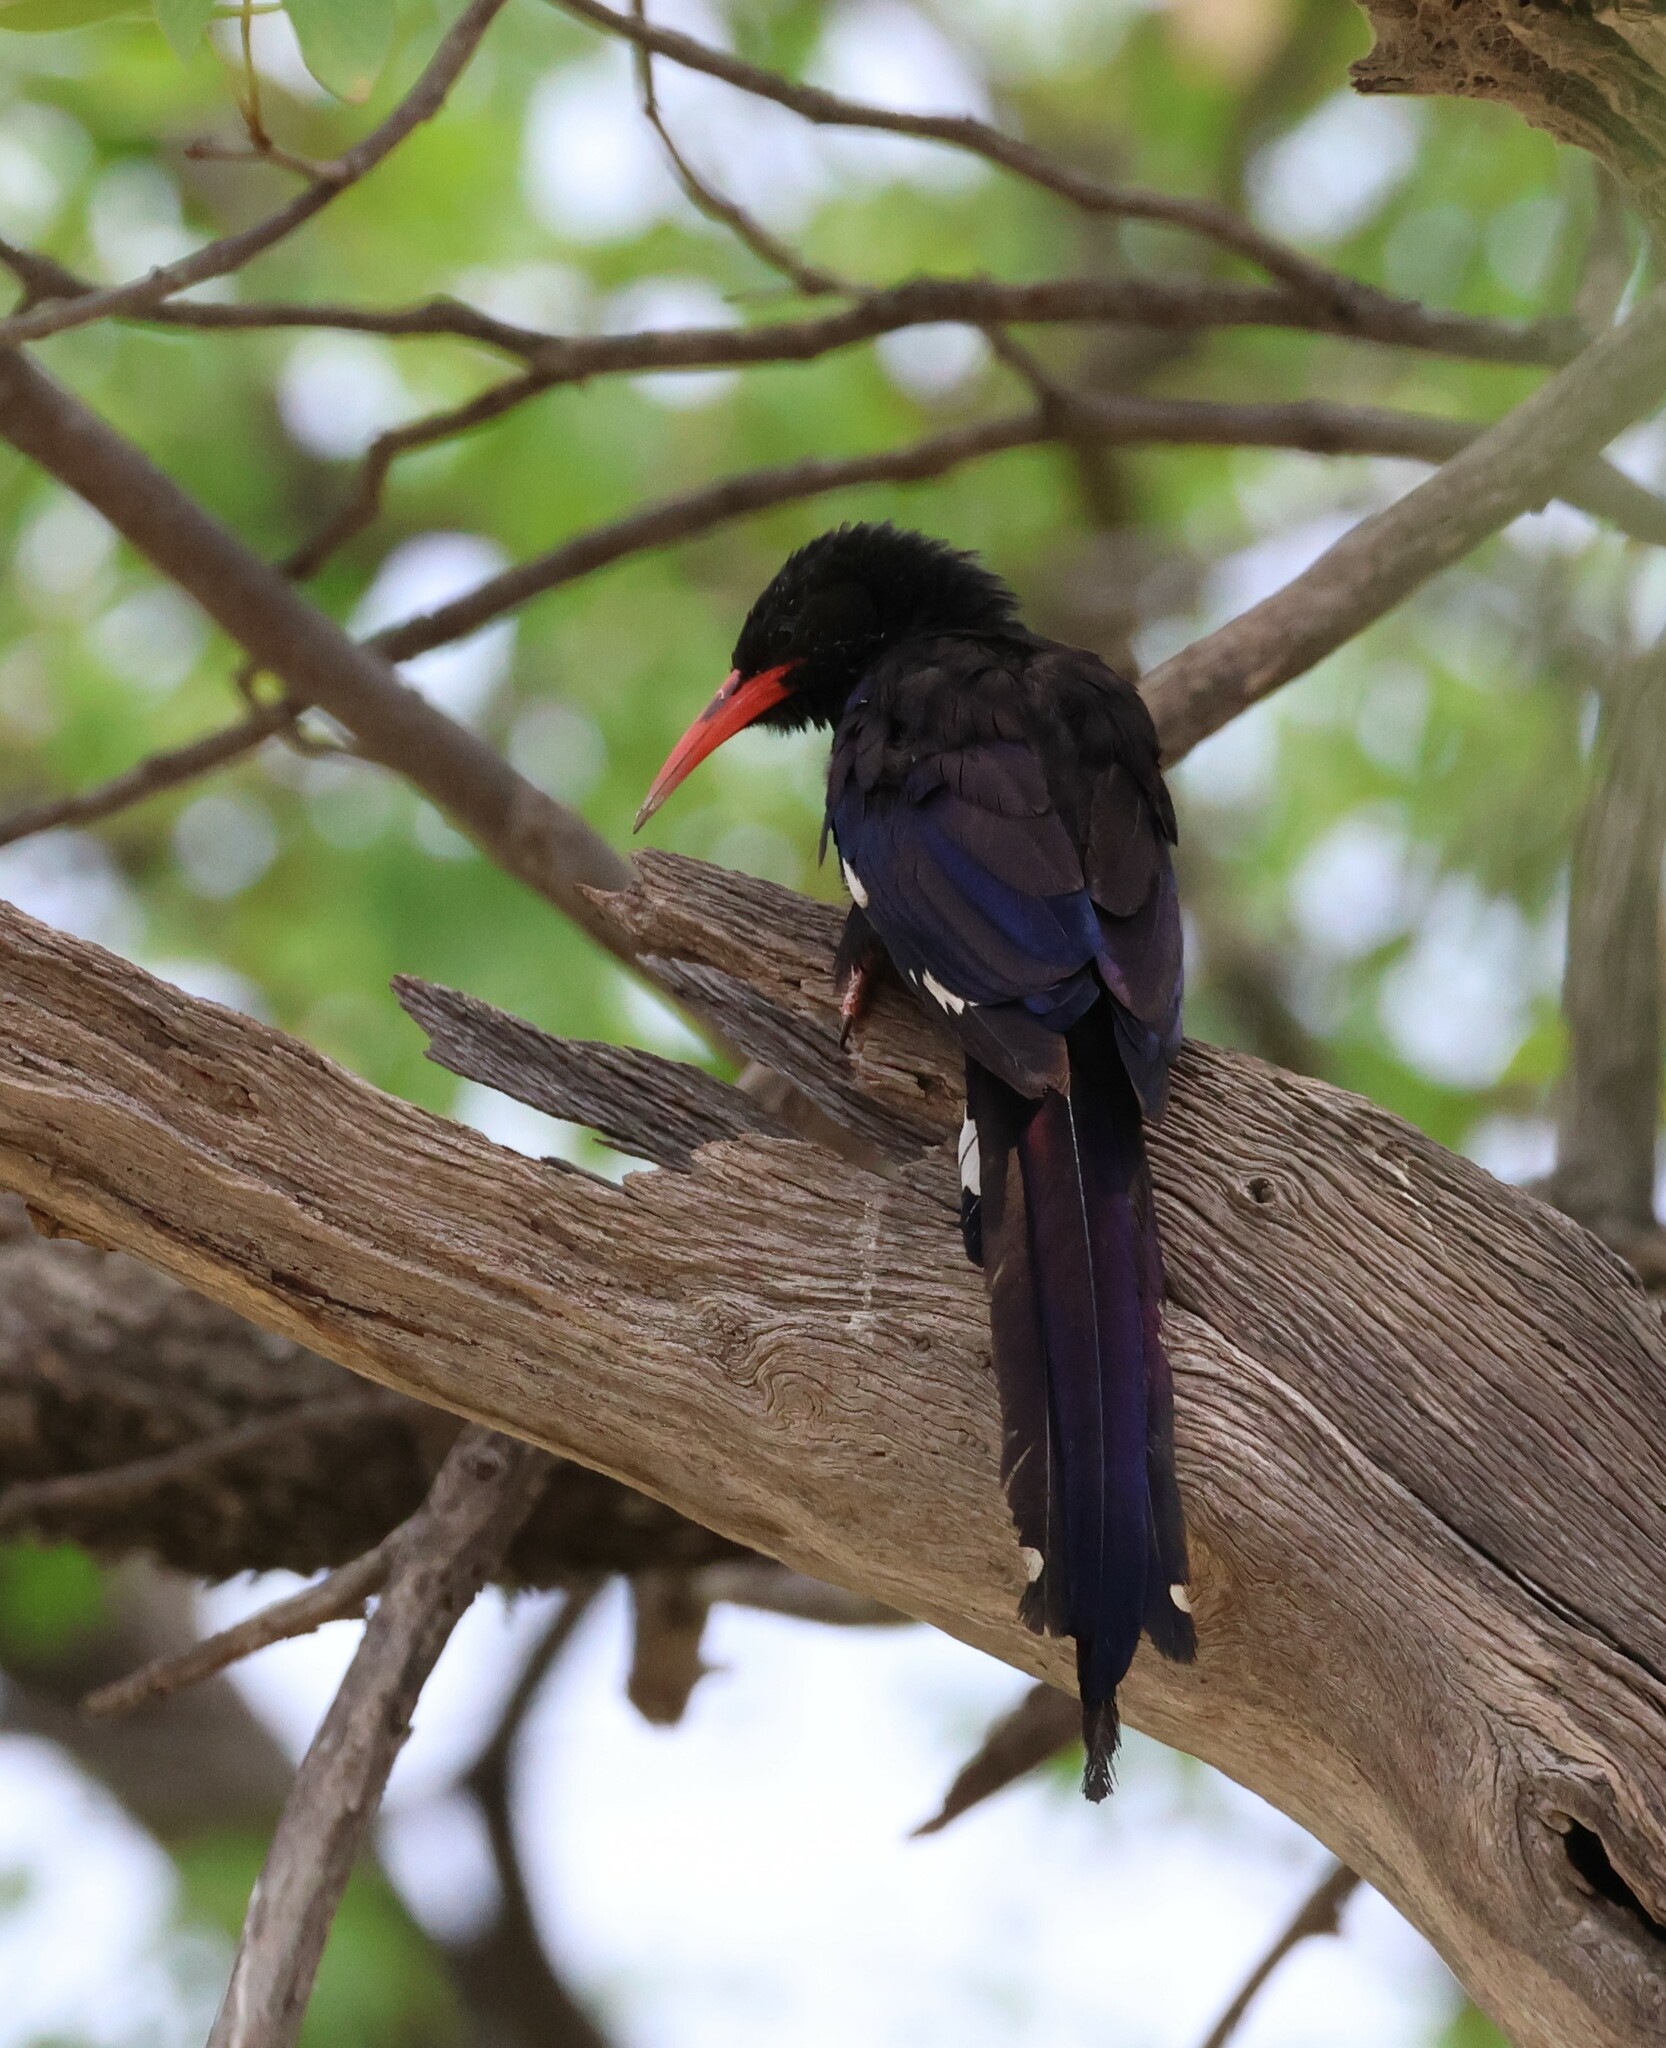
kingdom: Animalia
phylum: Chordata
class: Aves
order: Bucerotiformes
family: Phoeniculidae
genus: Phoeniculus
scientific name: Phoeniculus damarensis
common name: Violet woodhoopoe
